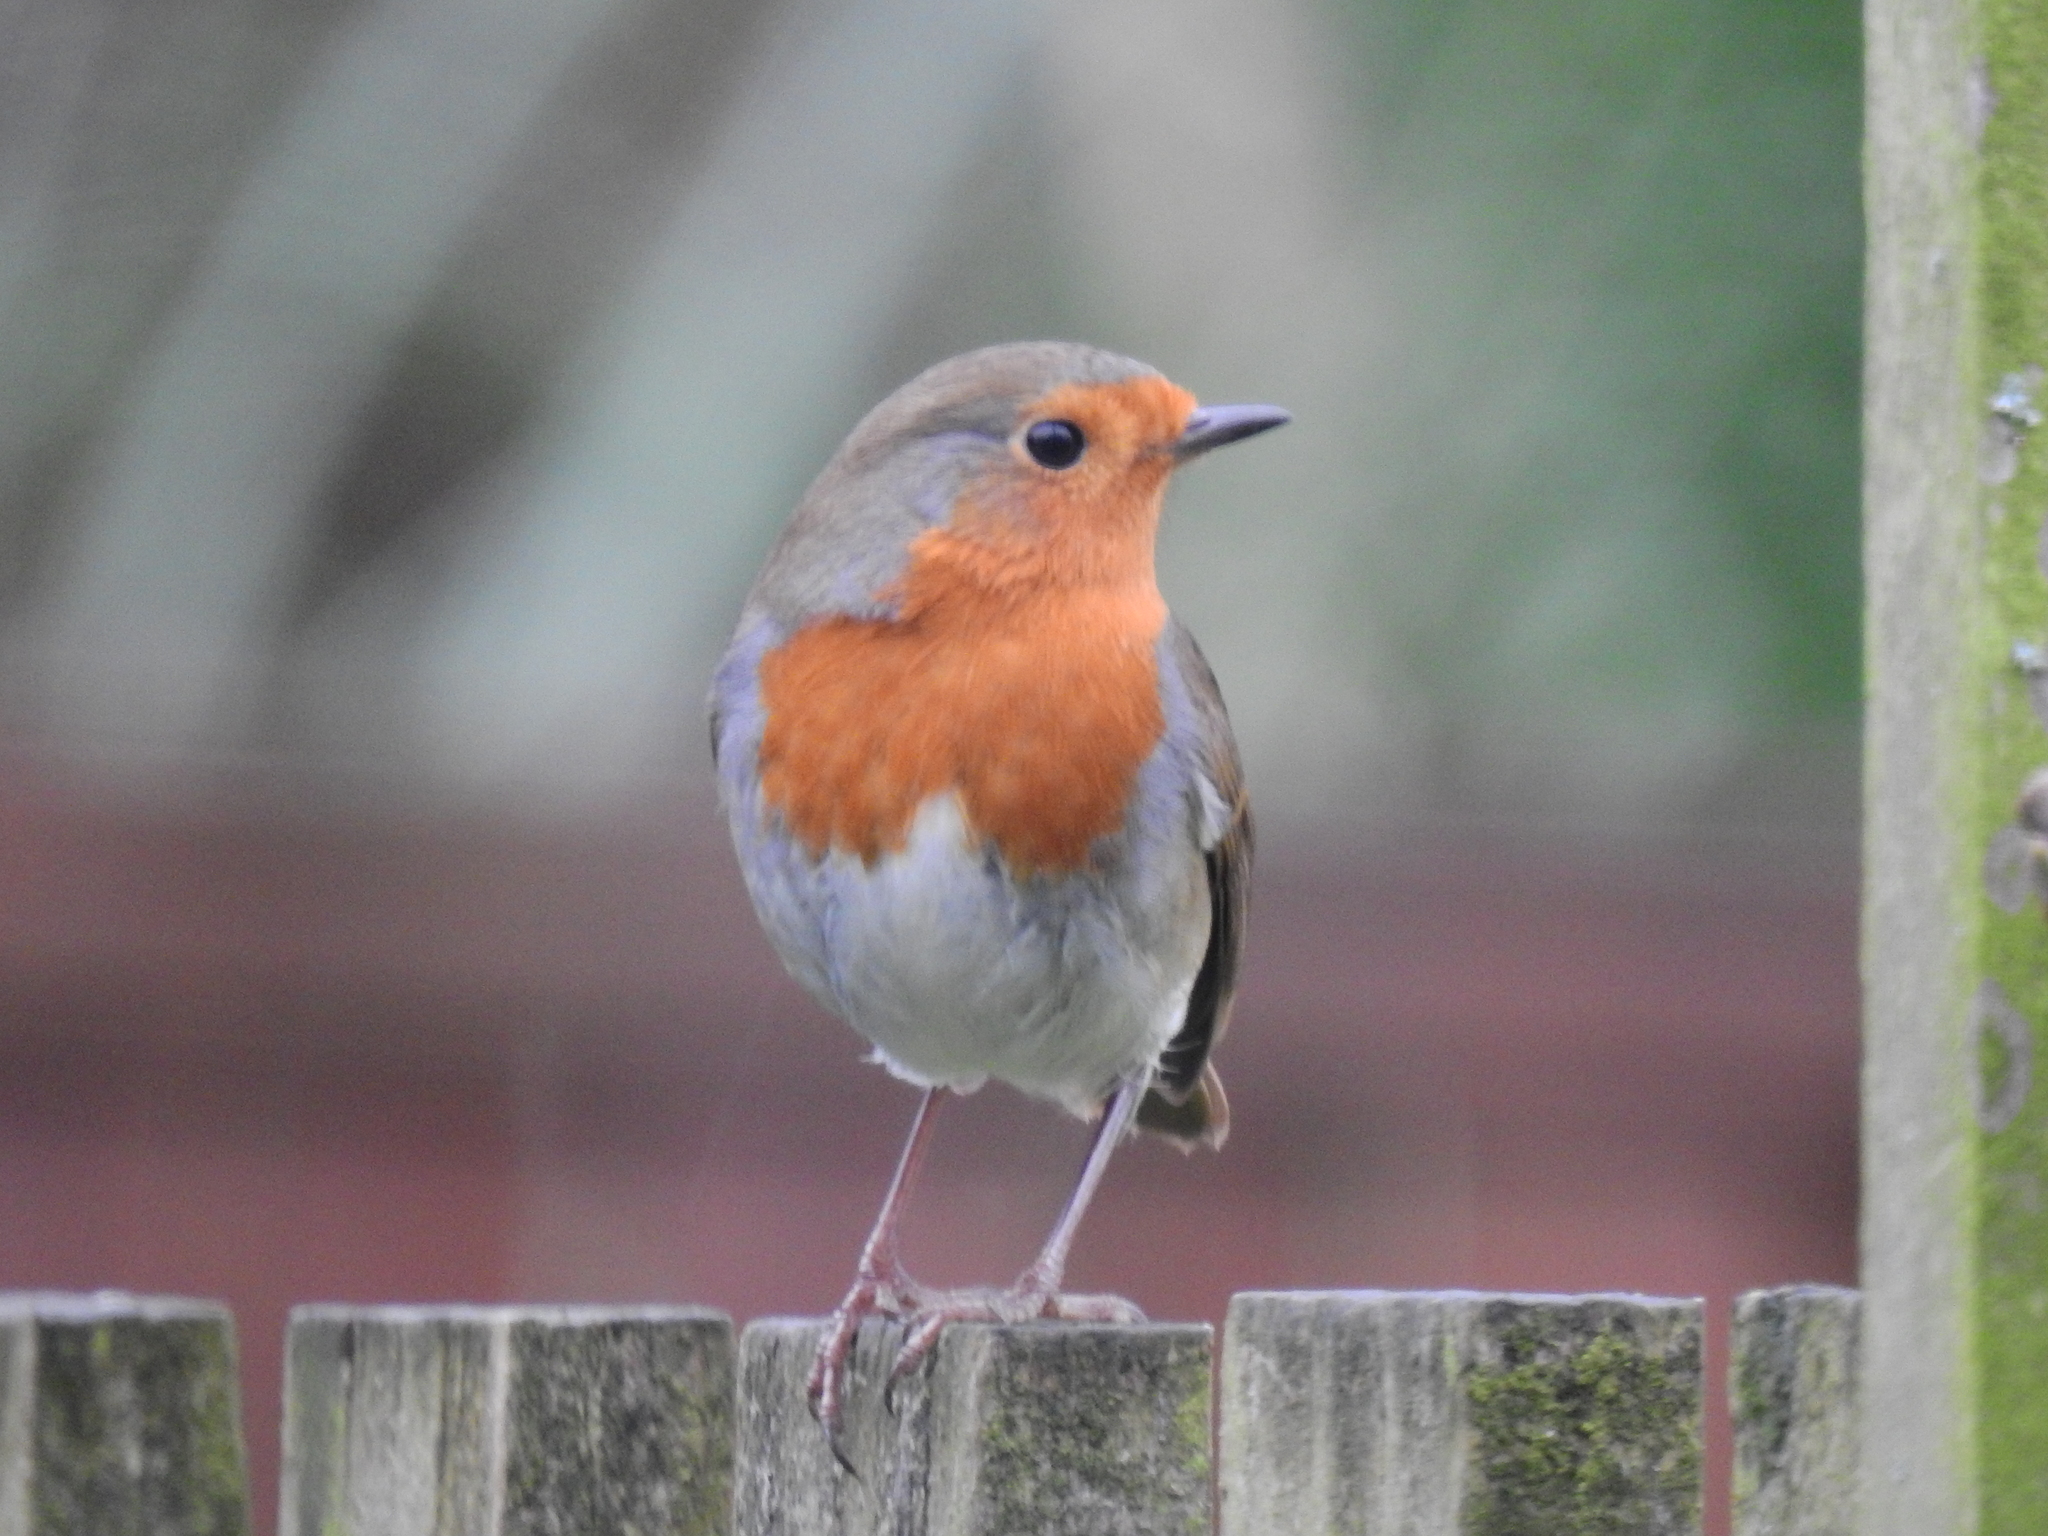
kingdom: Animalia
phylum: Chordata
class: Aves
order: Passeriformes
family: Muscicapidae
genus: Erithacus
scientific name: Erithacus rubecula
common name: European robin
